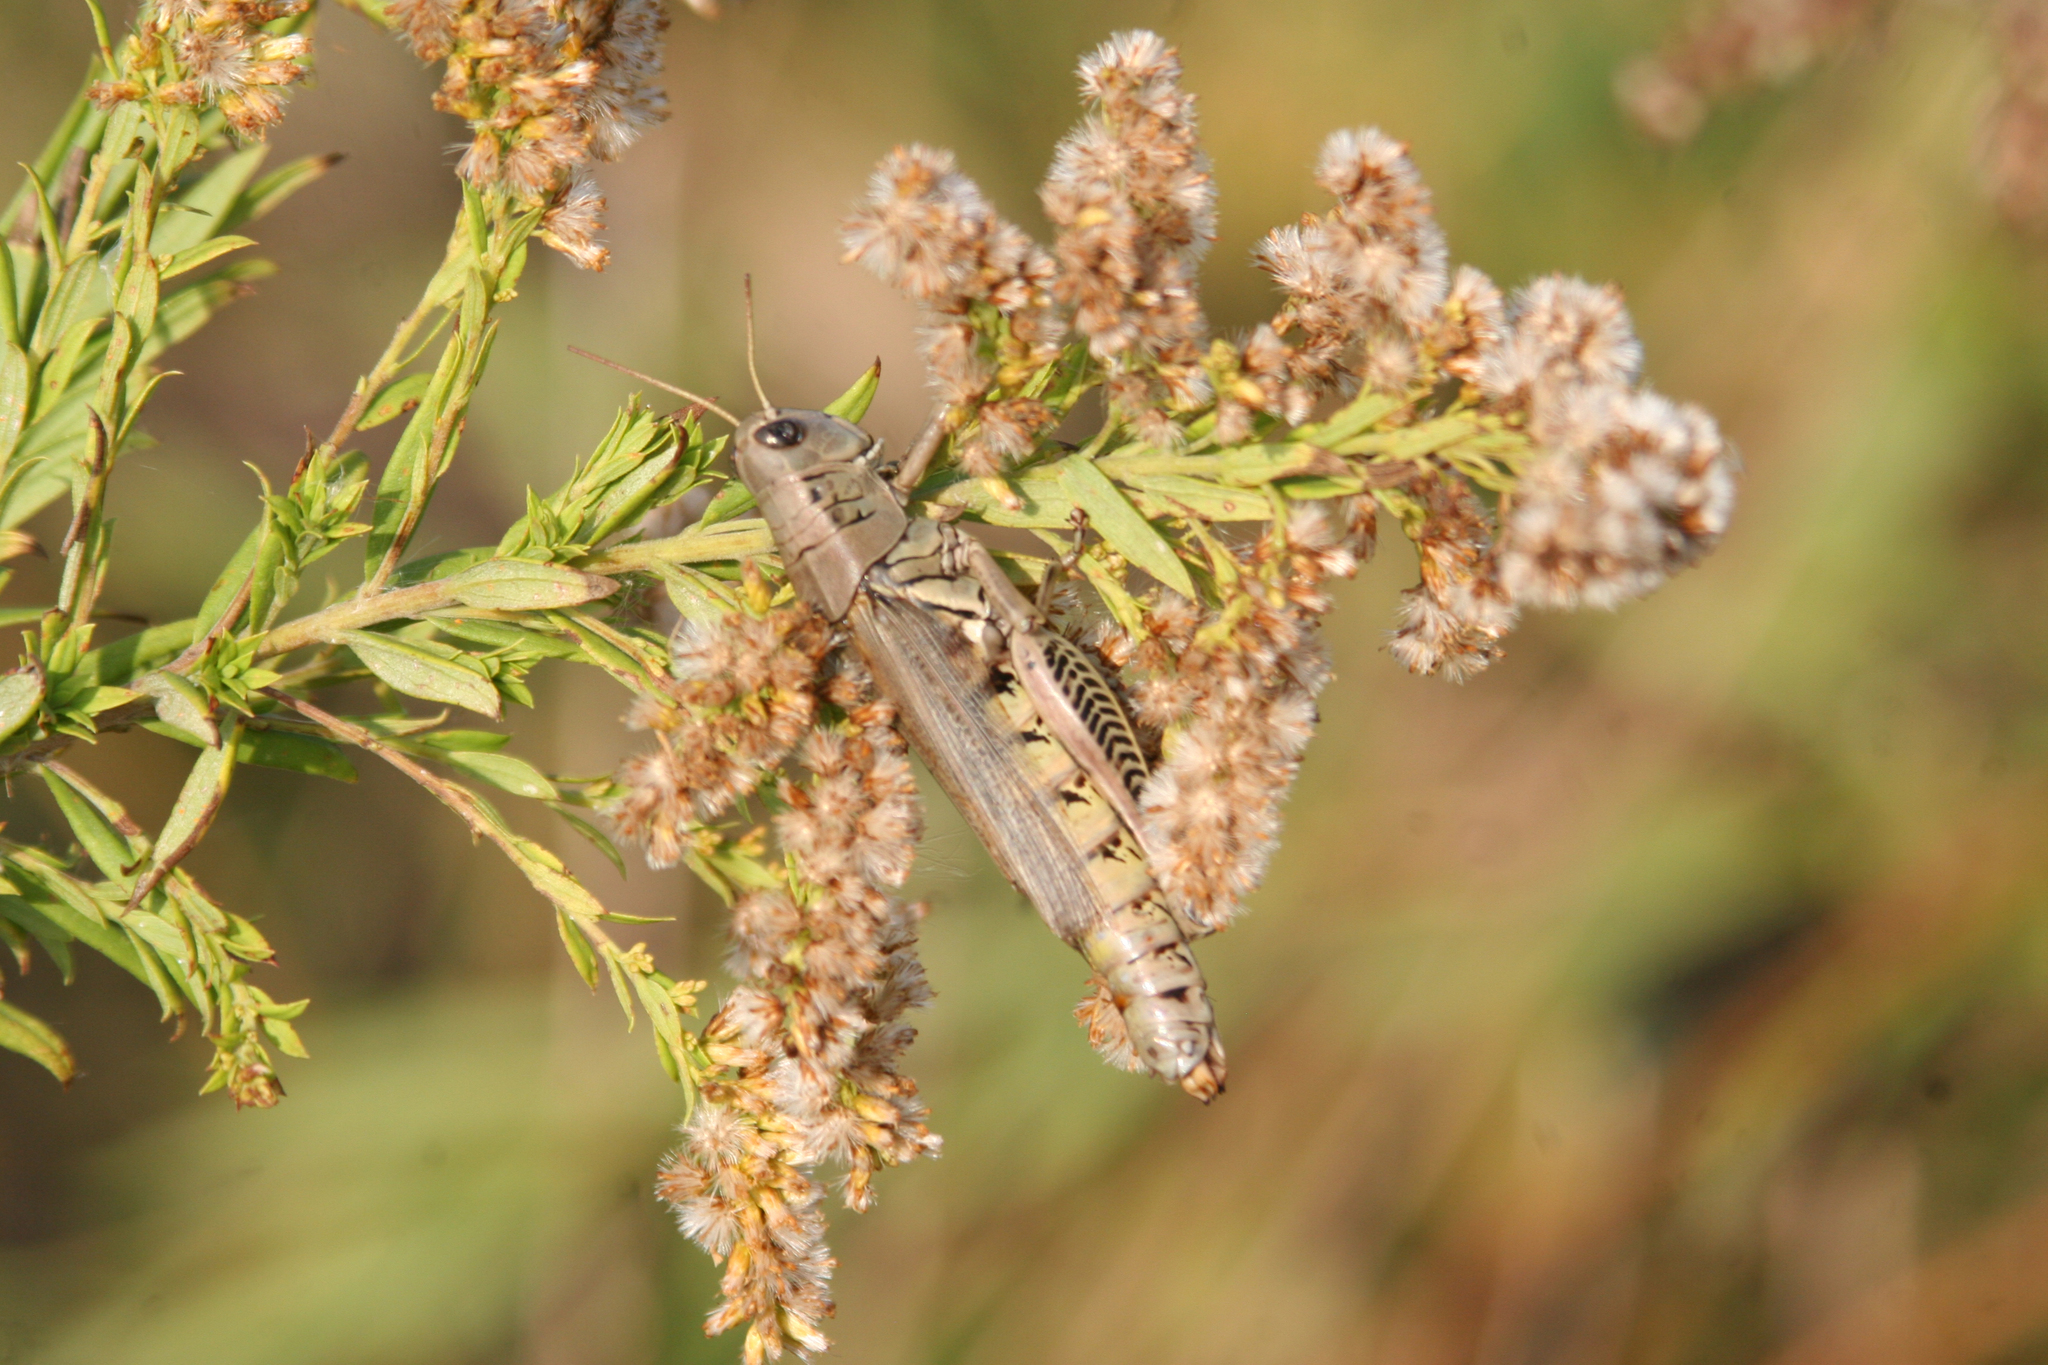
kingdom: Animalia
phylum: Arthropoda
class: Insecta
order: Orthoptera
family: Acrididae
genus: Melanoplus
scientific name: Melanoplus differentialis
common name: Differential grasshopper
